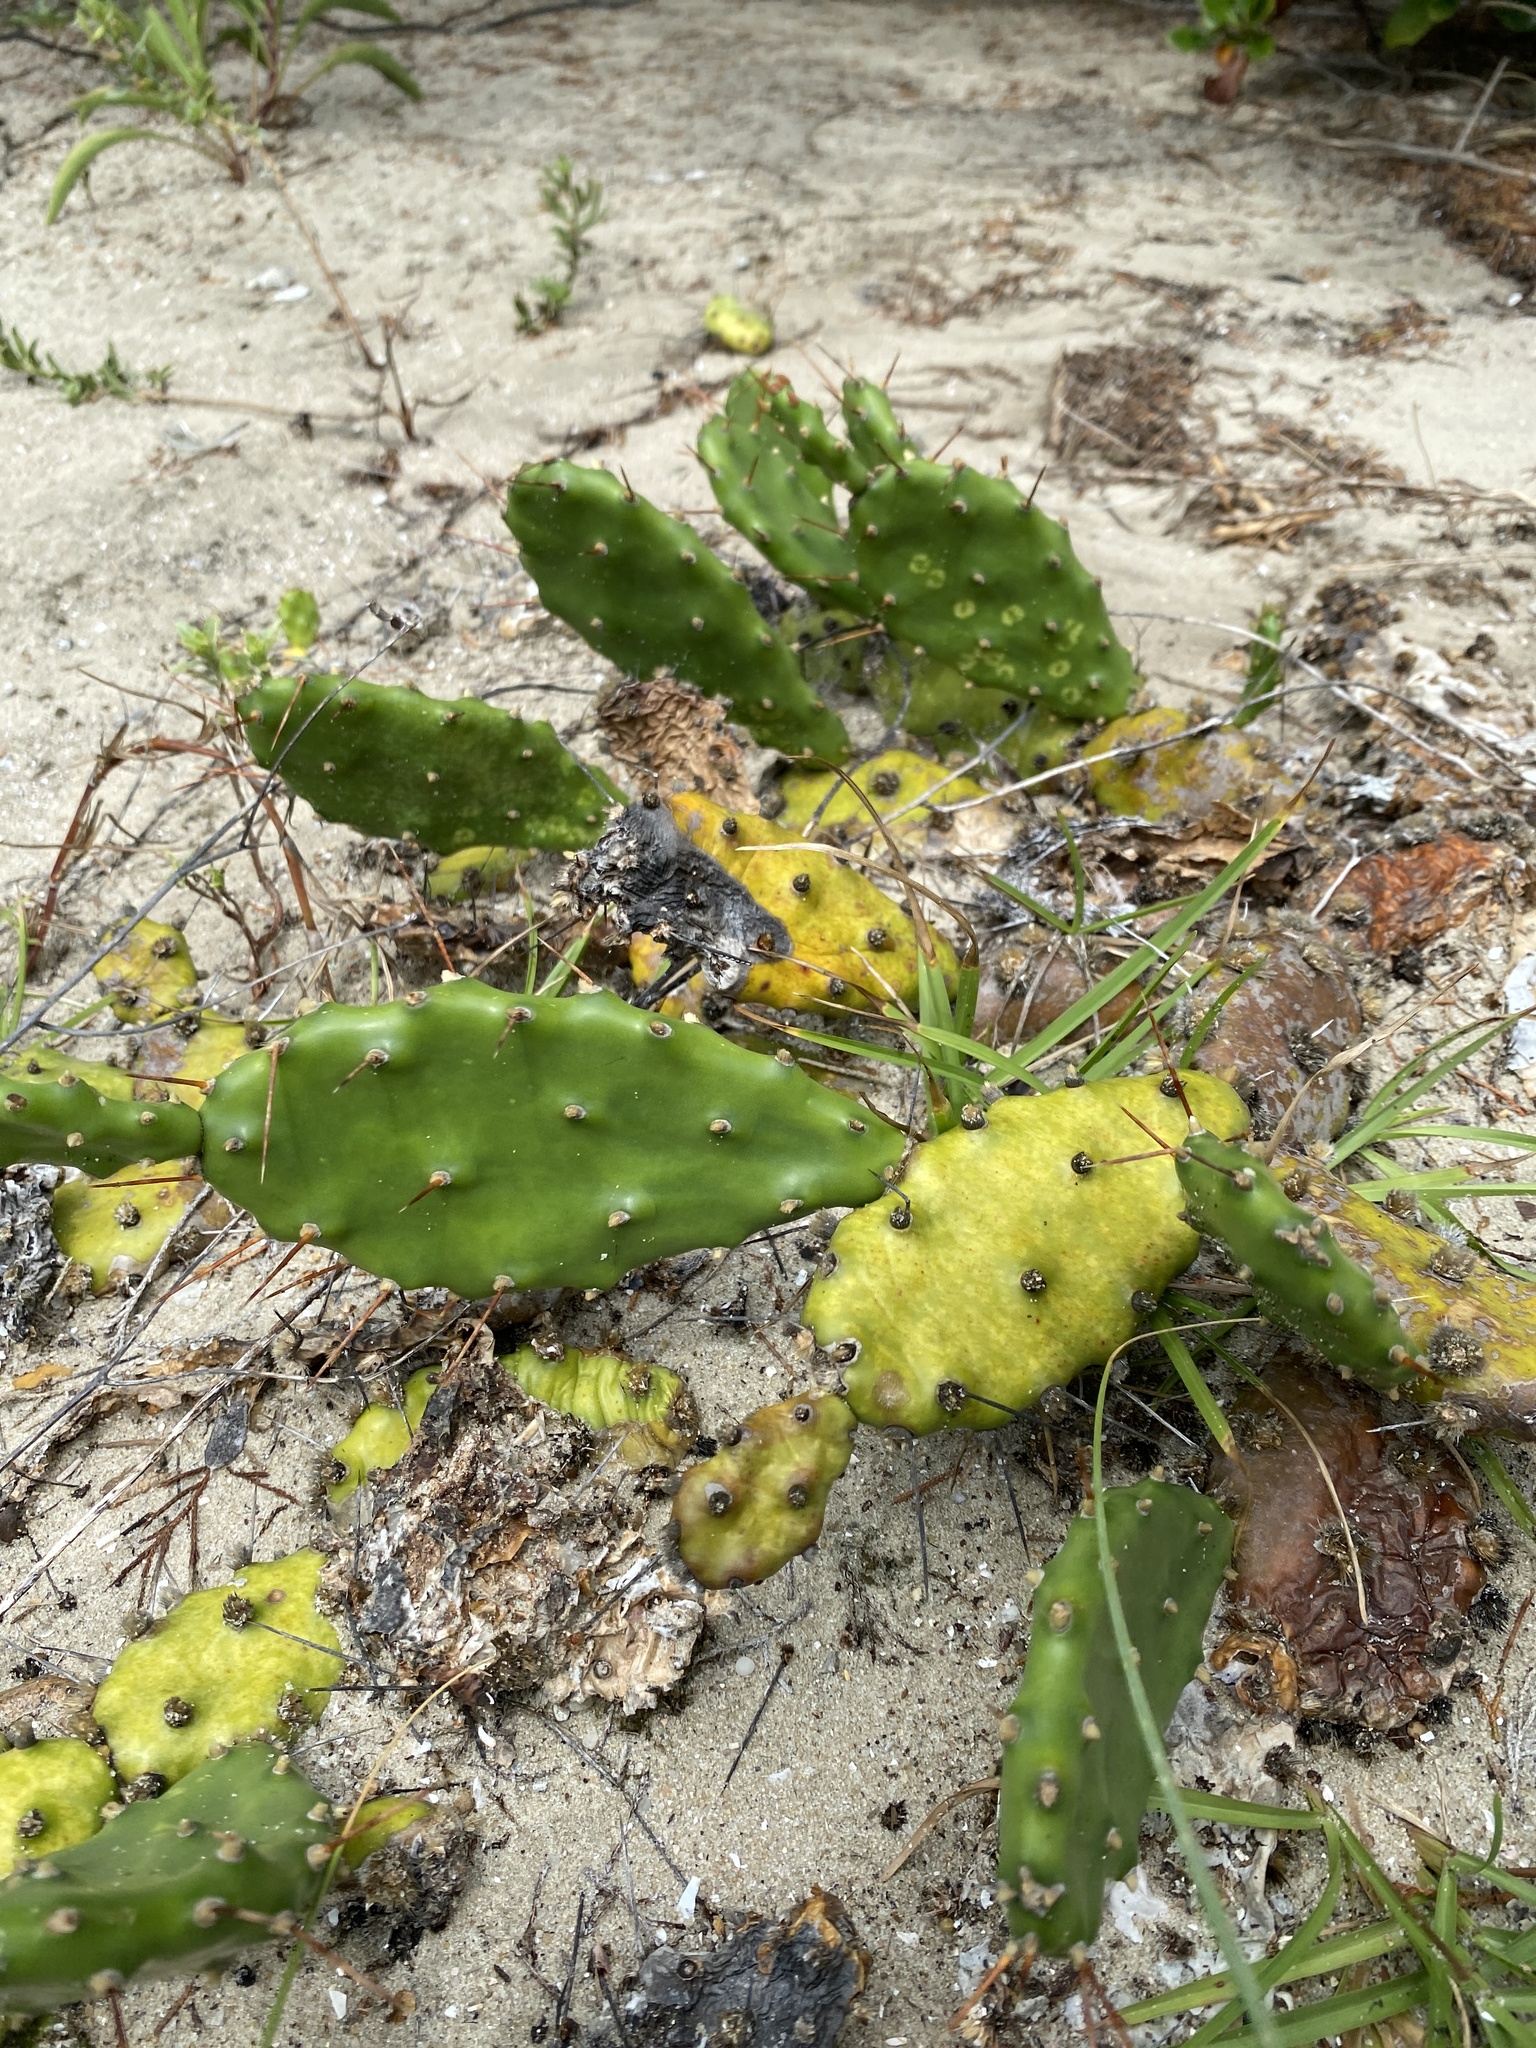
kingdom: Plantae
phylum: Tracheophyta
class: Magnoliopsida
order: Caryophyllales
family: Cactaceae
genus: Opuntia
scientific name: Opuntia humifusa
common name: Eastern prickly-pear
